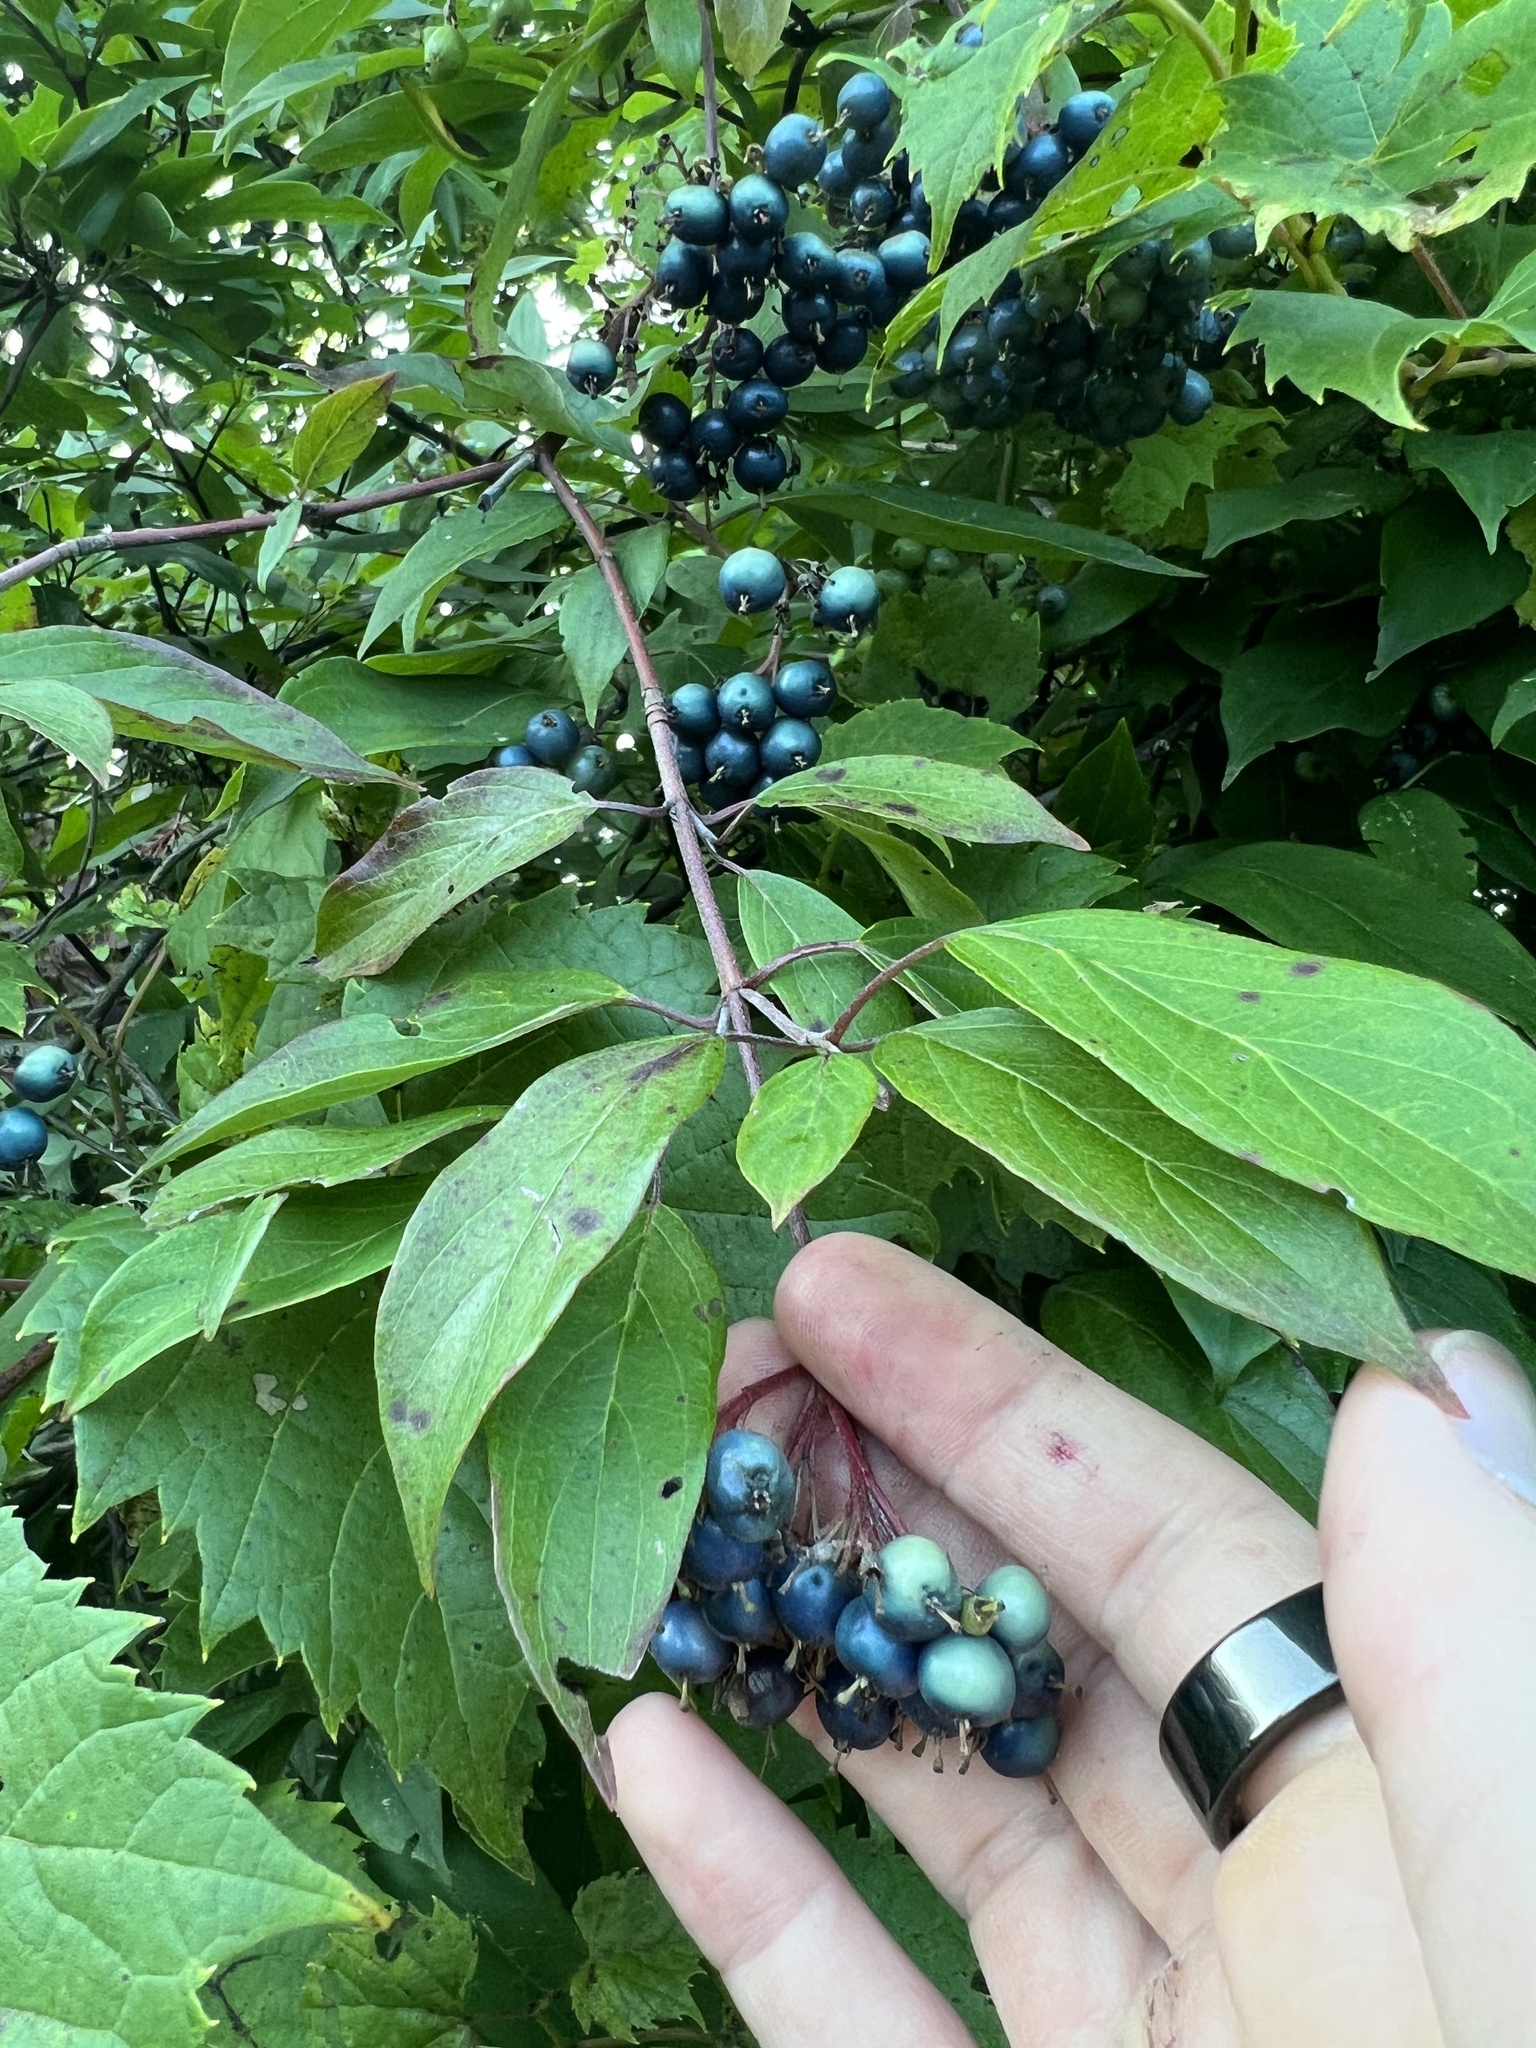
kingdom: Plantae
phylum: Tracheophyta
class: Magnoliopsida
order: Cornales
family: Cornaceae
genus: Cornus
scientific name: Cornus amomum
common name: Silky dogwood
